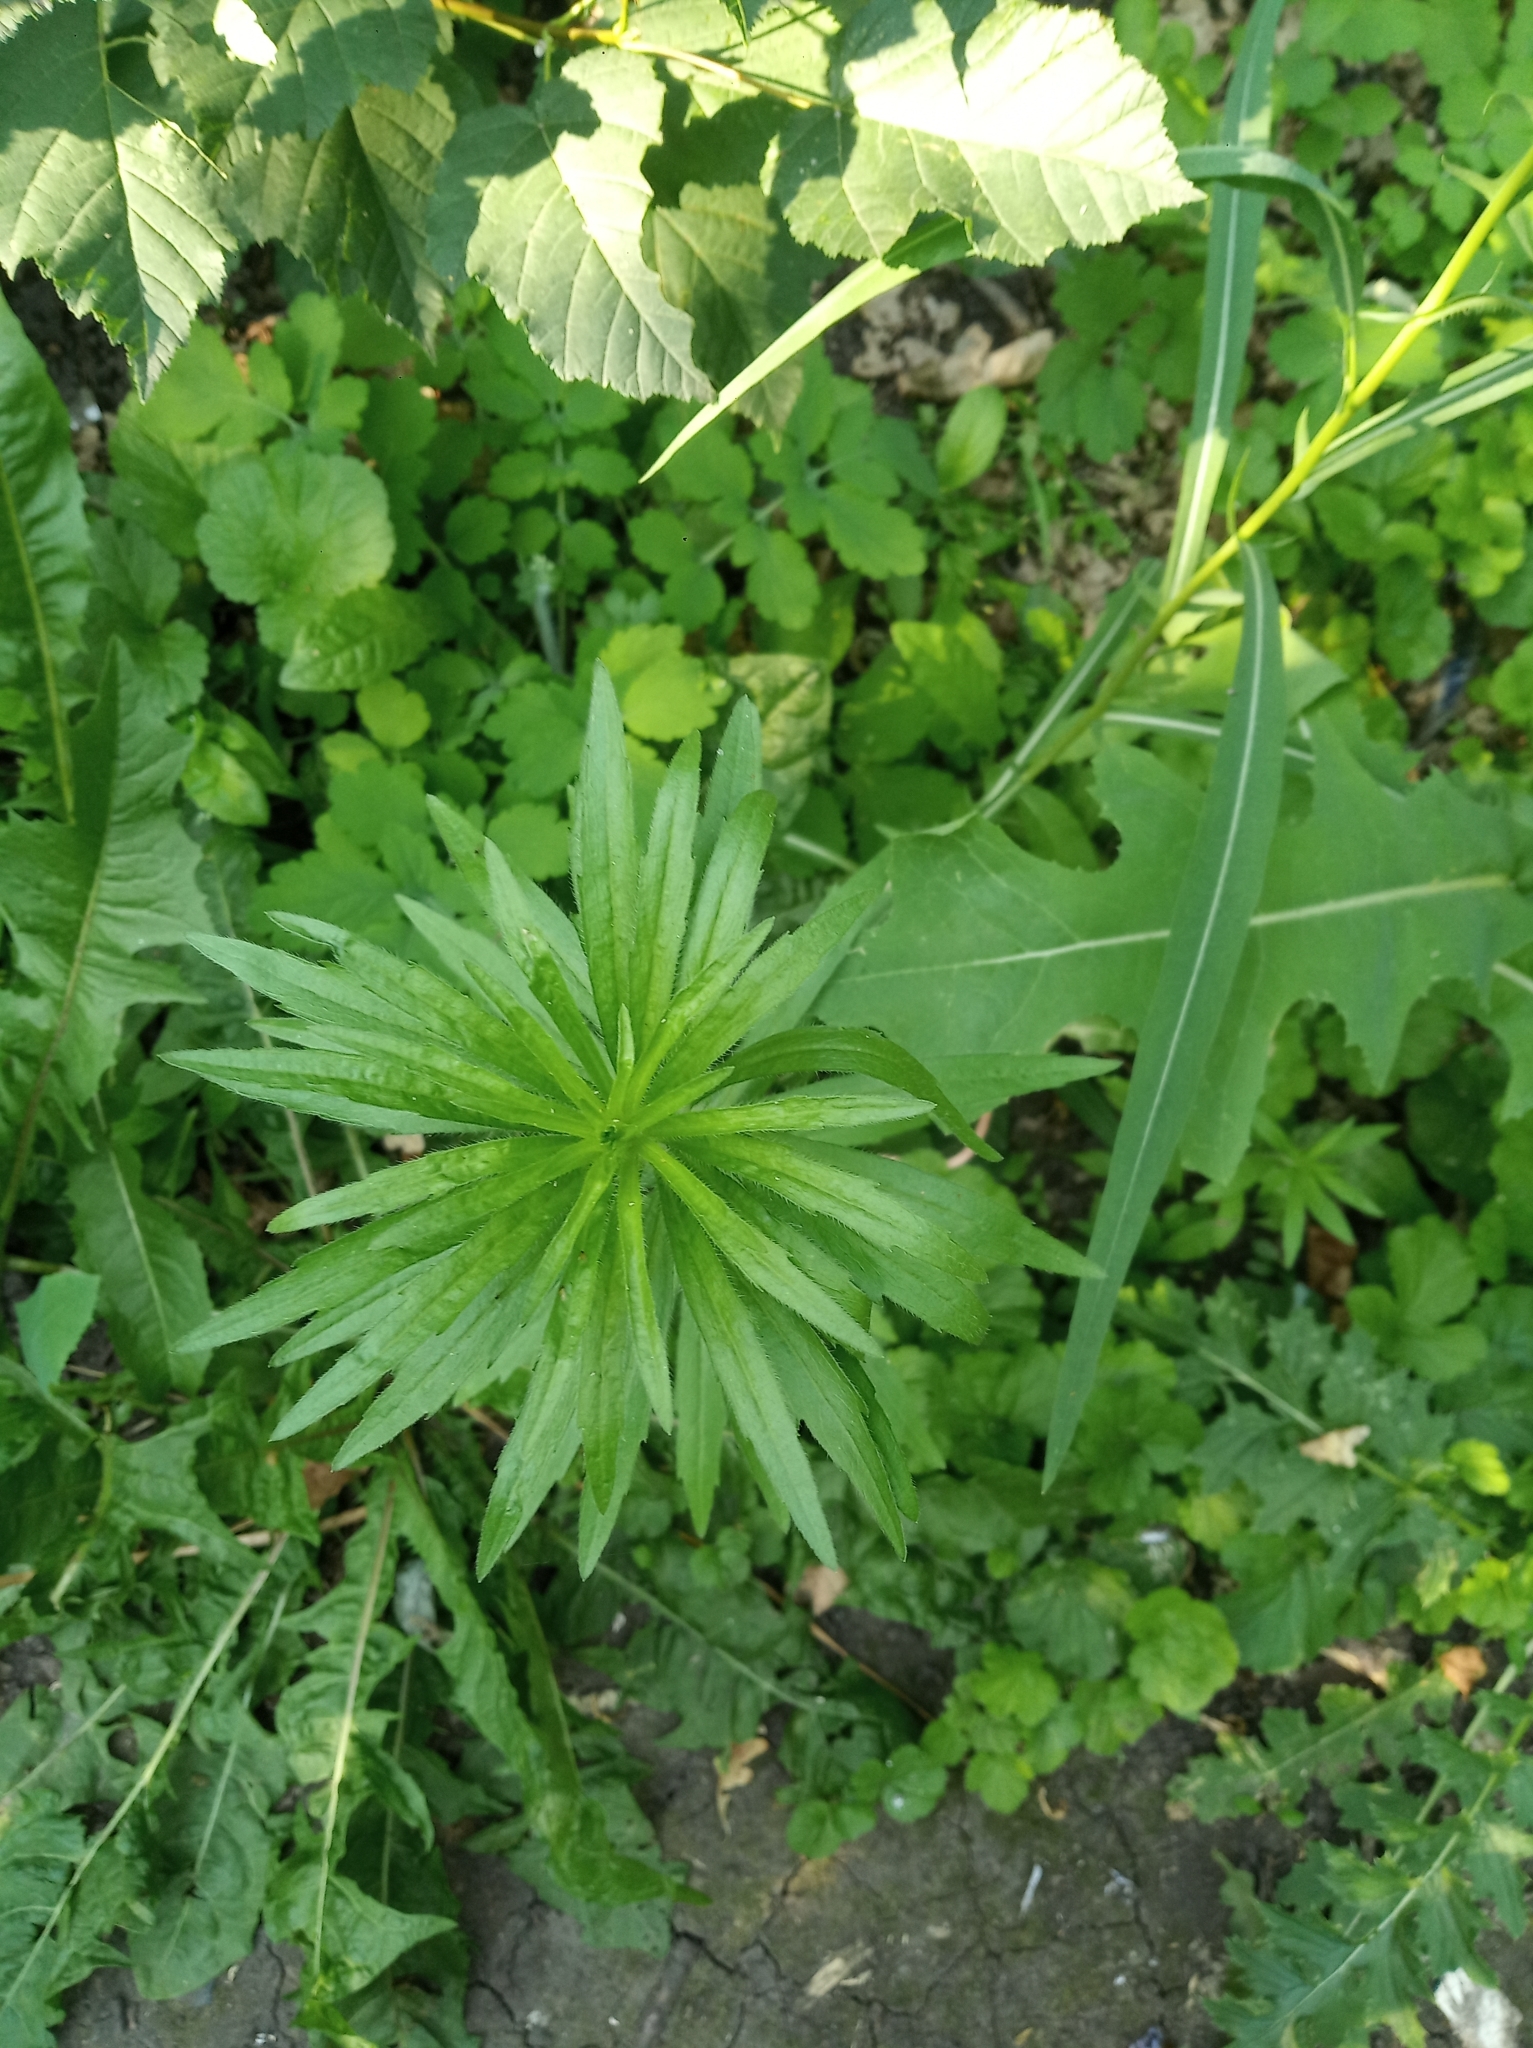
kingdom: Plantae
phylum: Tracheophyta
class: Magnoliopsida
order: Asterales
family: Asteraceae
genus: Erigeron
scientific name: Erigeron canadensis
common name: Canadian fleabane
